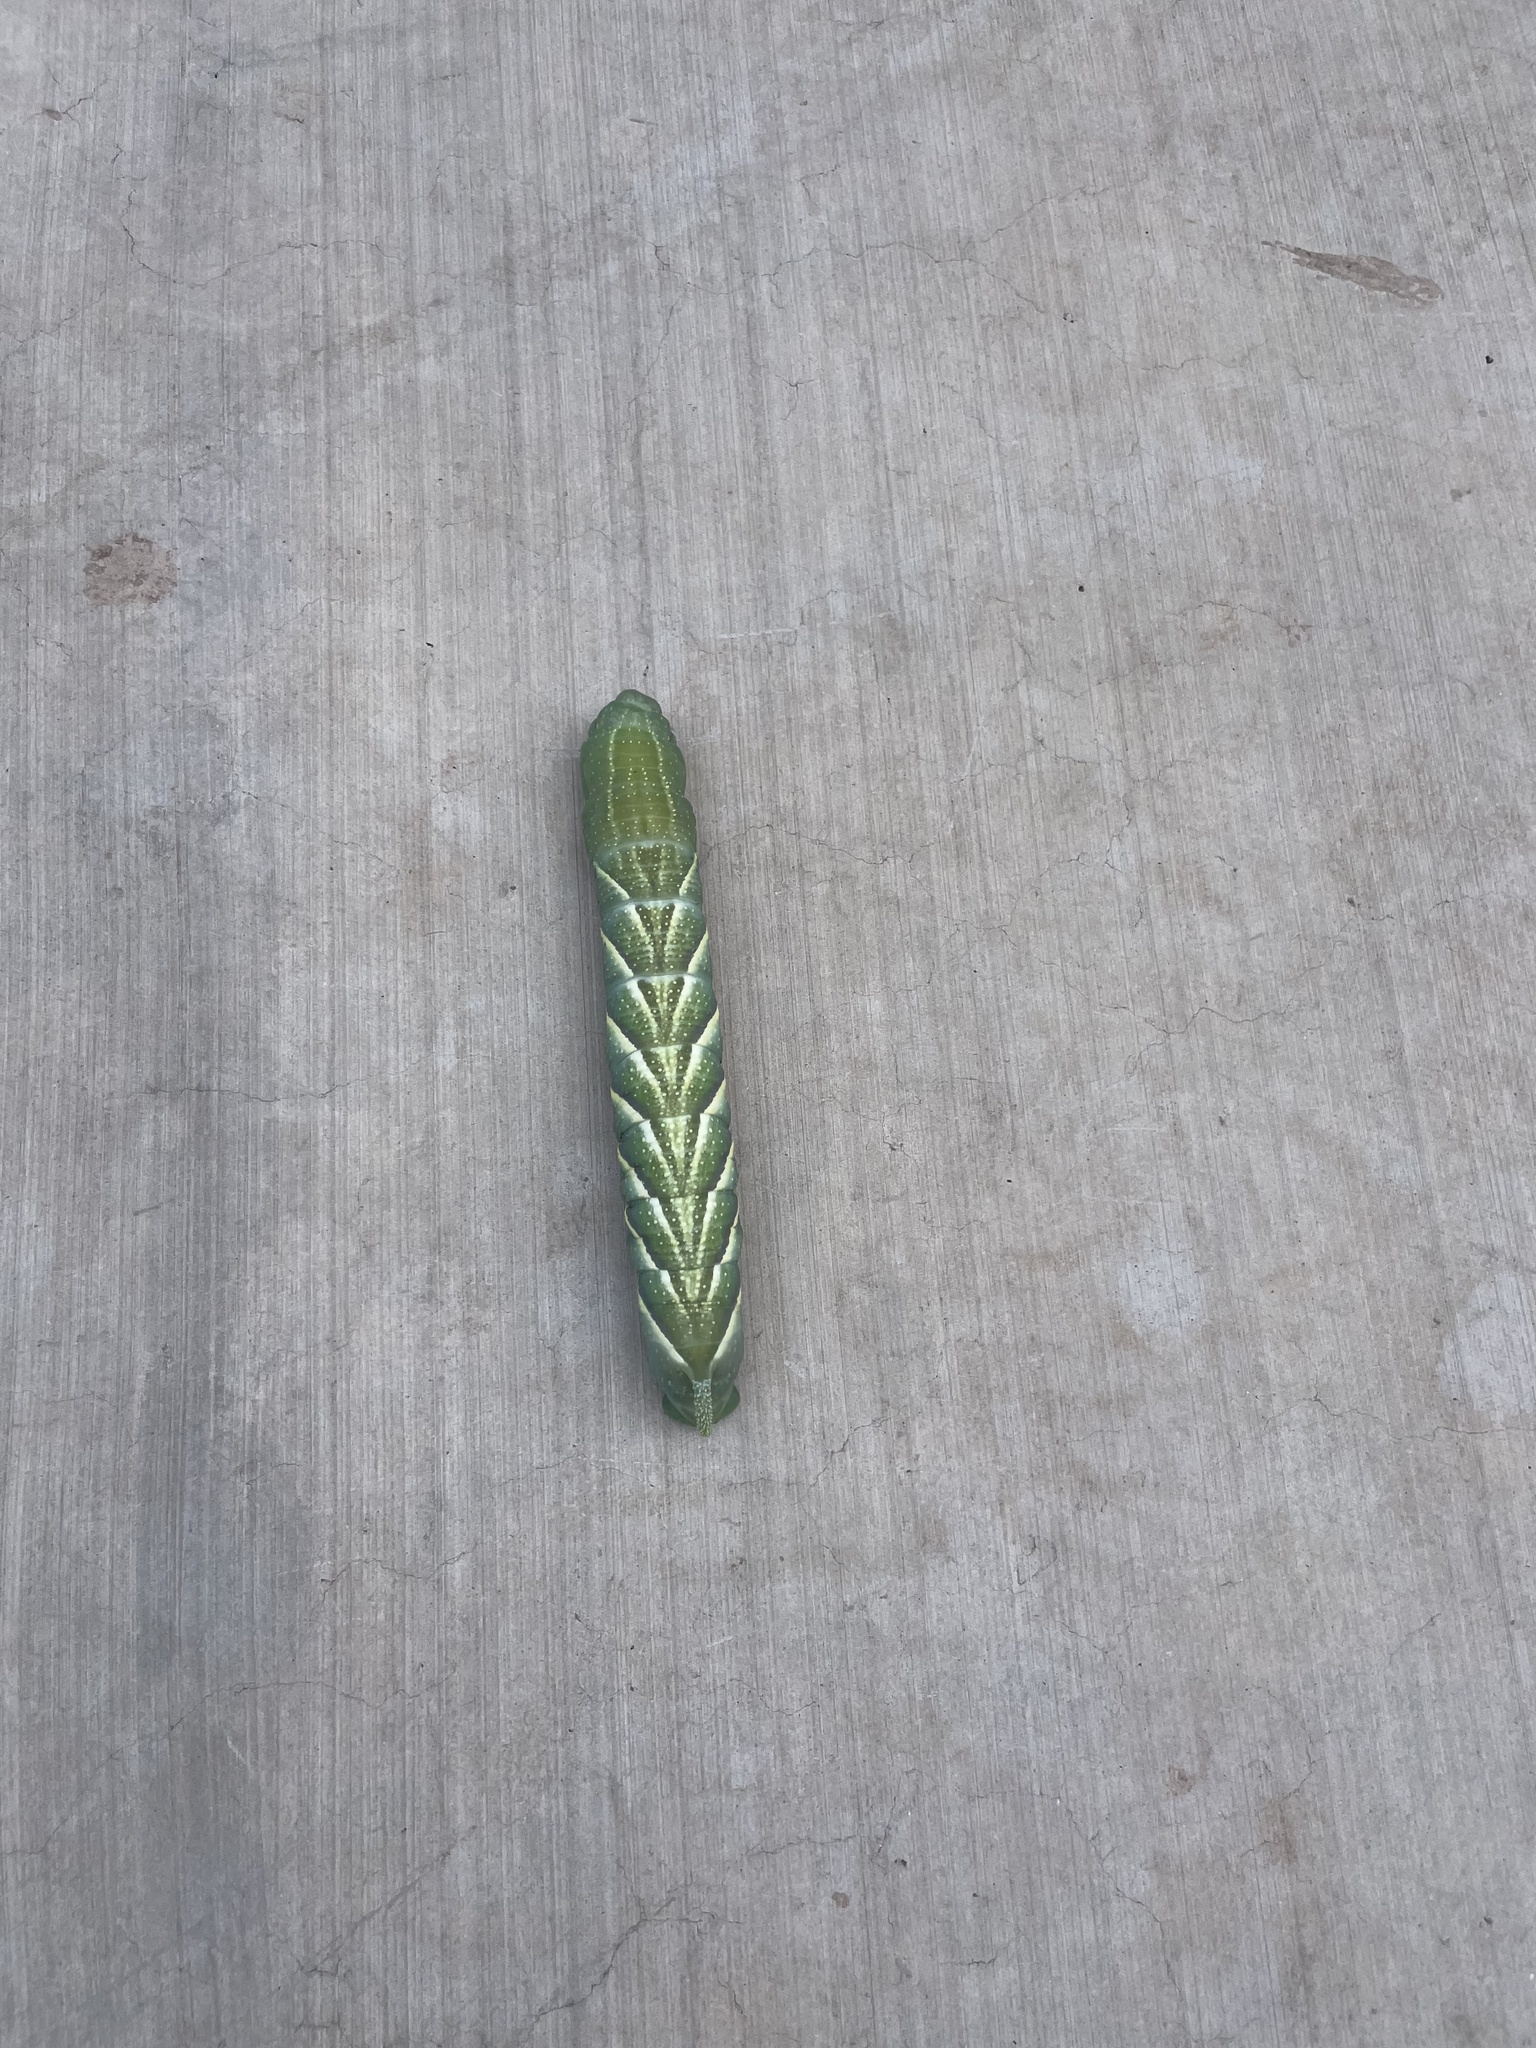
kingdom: Animalia
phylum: Arthropoda
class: Insecta
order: Lepidoptera
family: Sphingidae
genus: Manduca
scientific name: Manduca rustica
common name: Rustic sphinx
